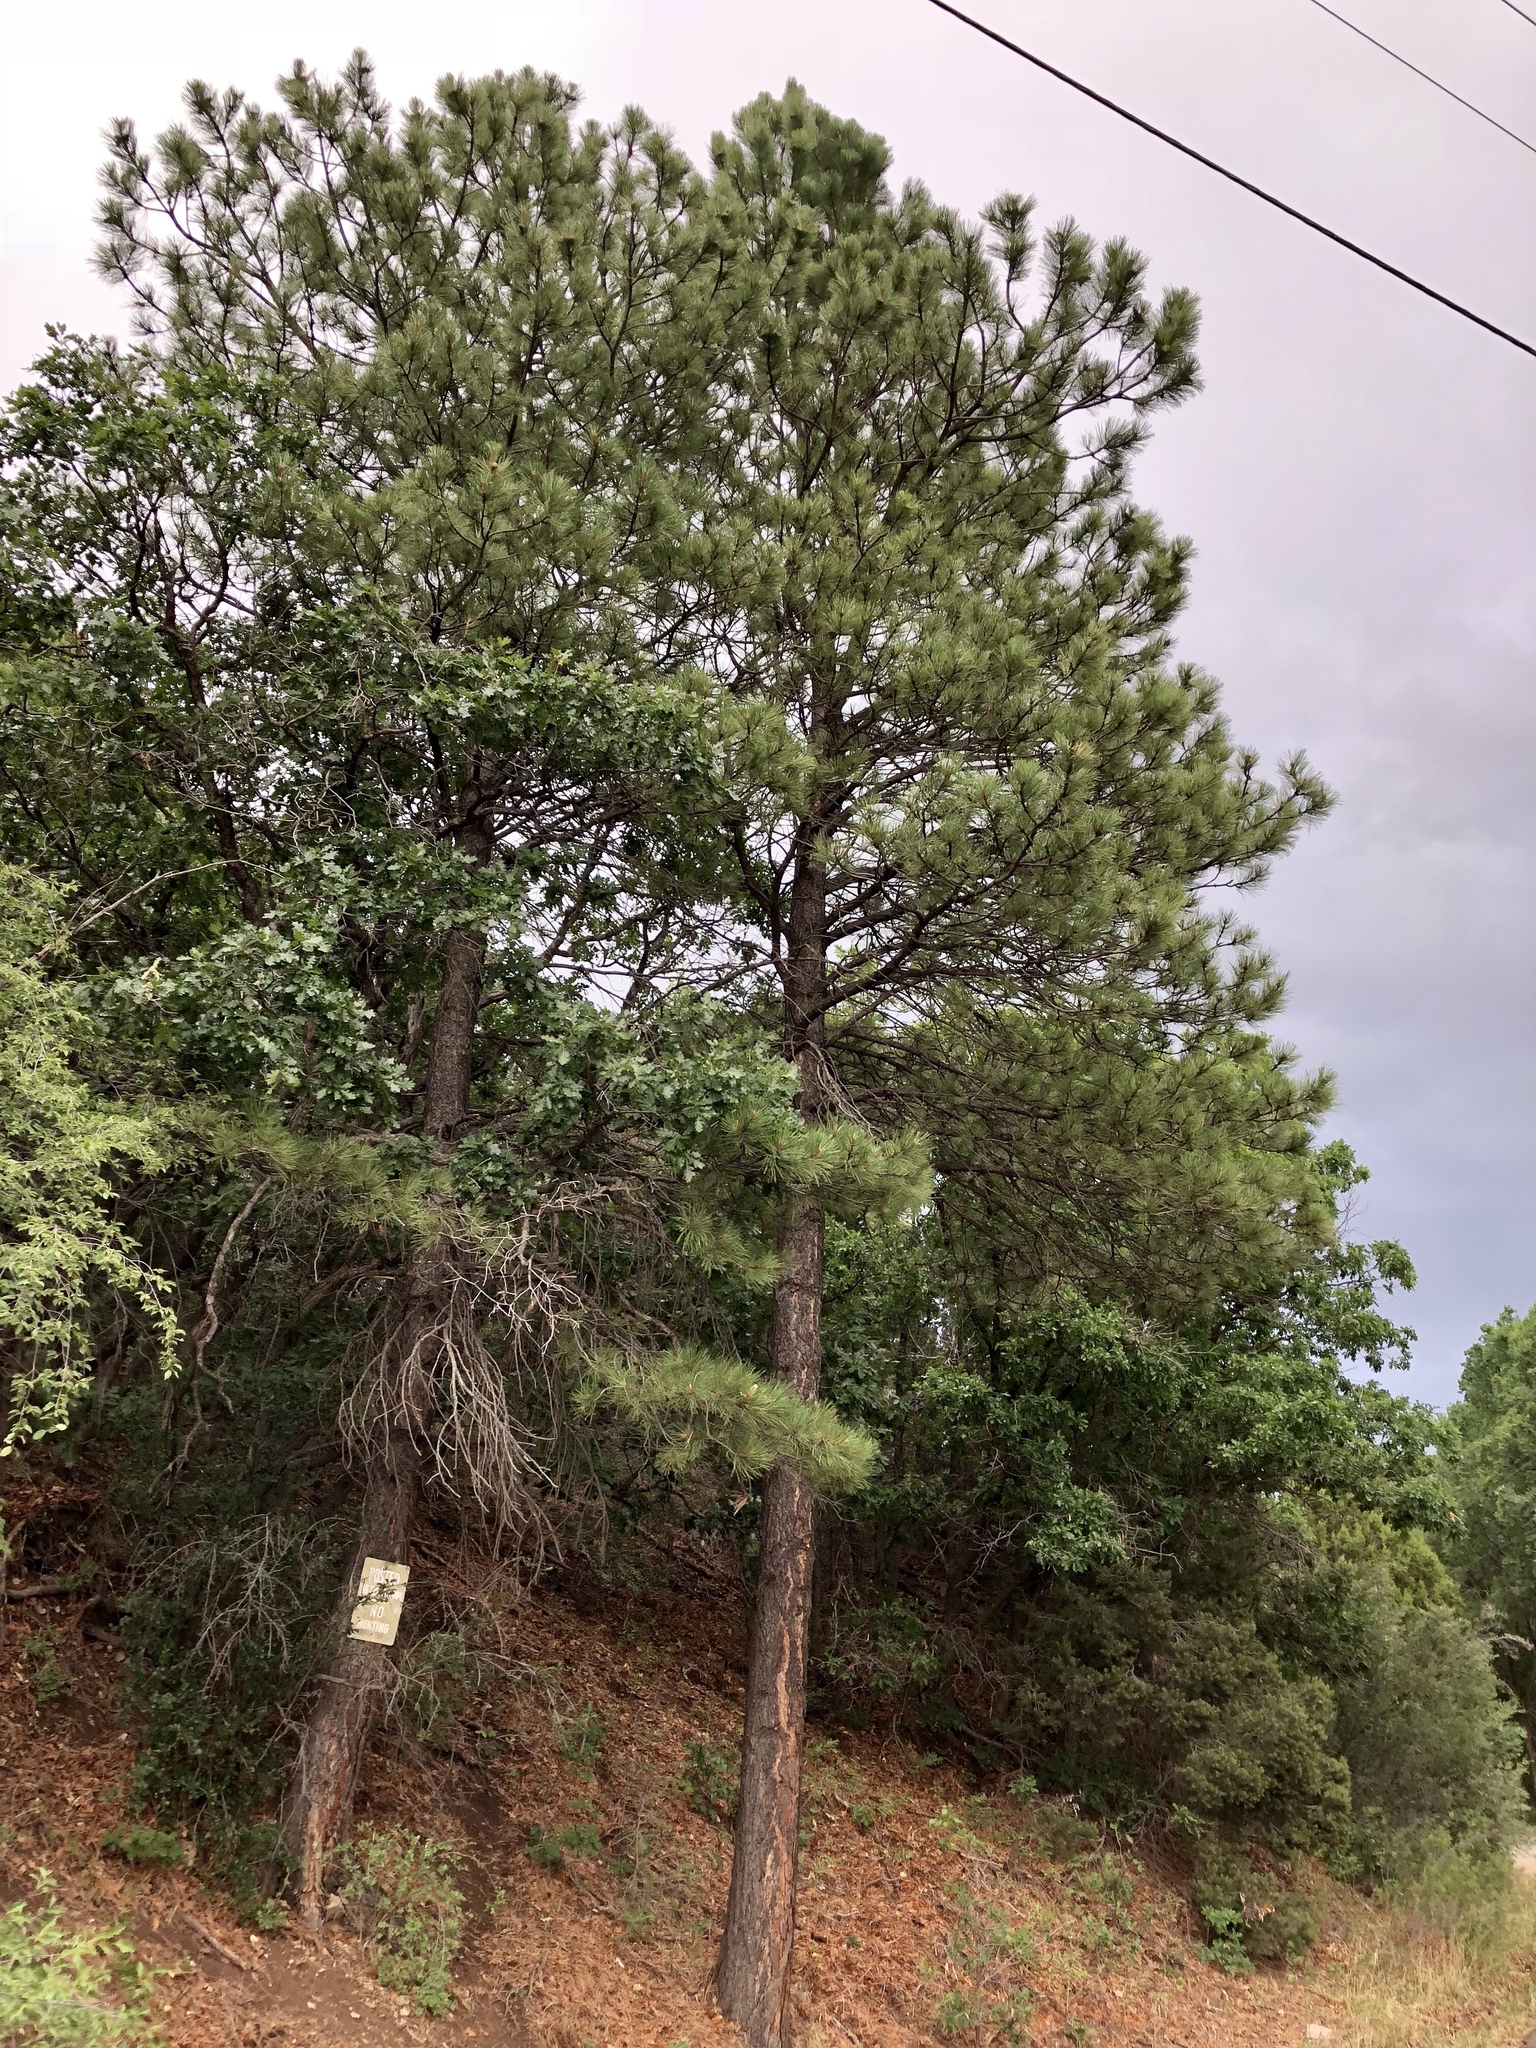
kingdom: Plantae
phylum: Tracheophyta
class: Pinopsida
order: Pinales
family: Pinaceae
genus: Pinus
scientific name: Pinus ponderosa
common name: Western yellow-pine
